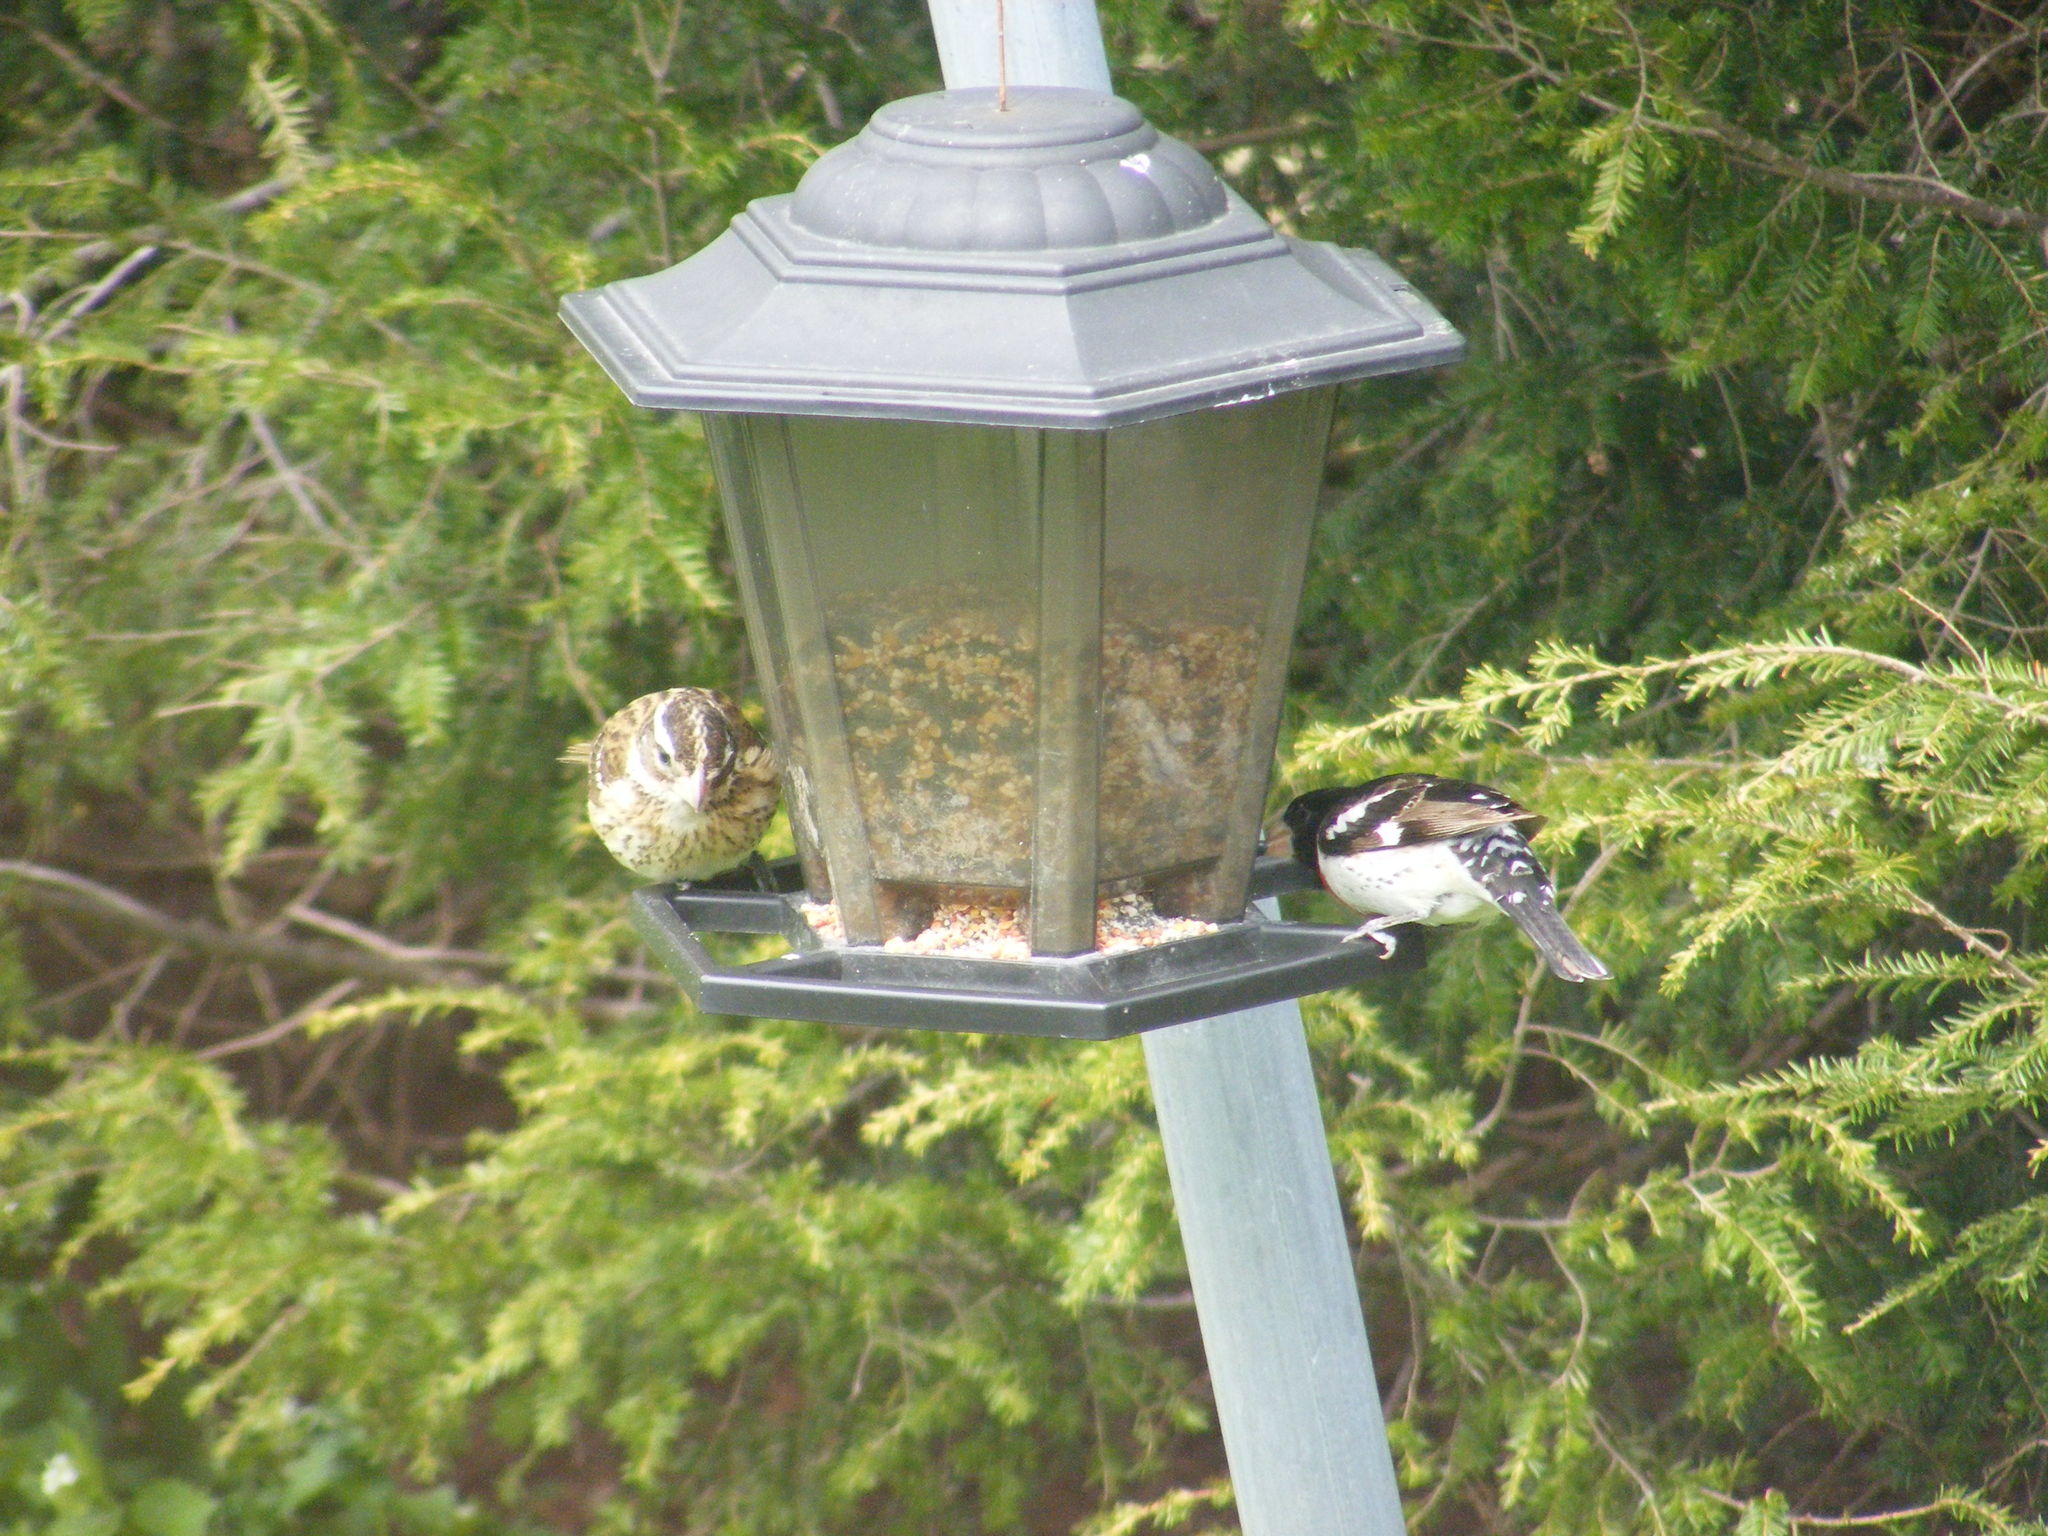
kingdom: Animalia
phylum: Chordata
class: Aves
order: Passeriformes
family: Cardinalidae
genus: Pheucticus
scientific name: Pheucticus ludovicianus
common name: Rose-breasted grosbeak
